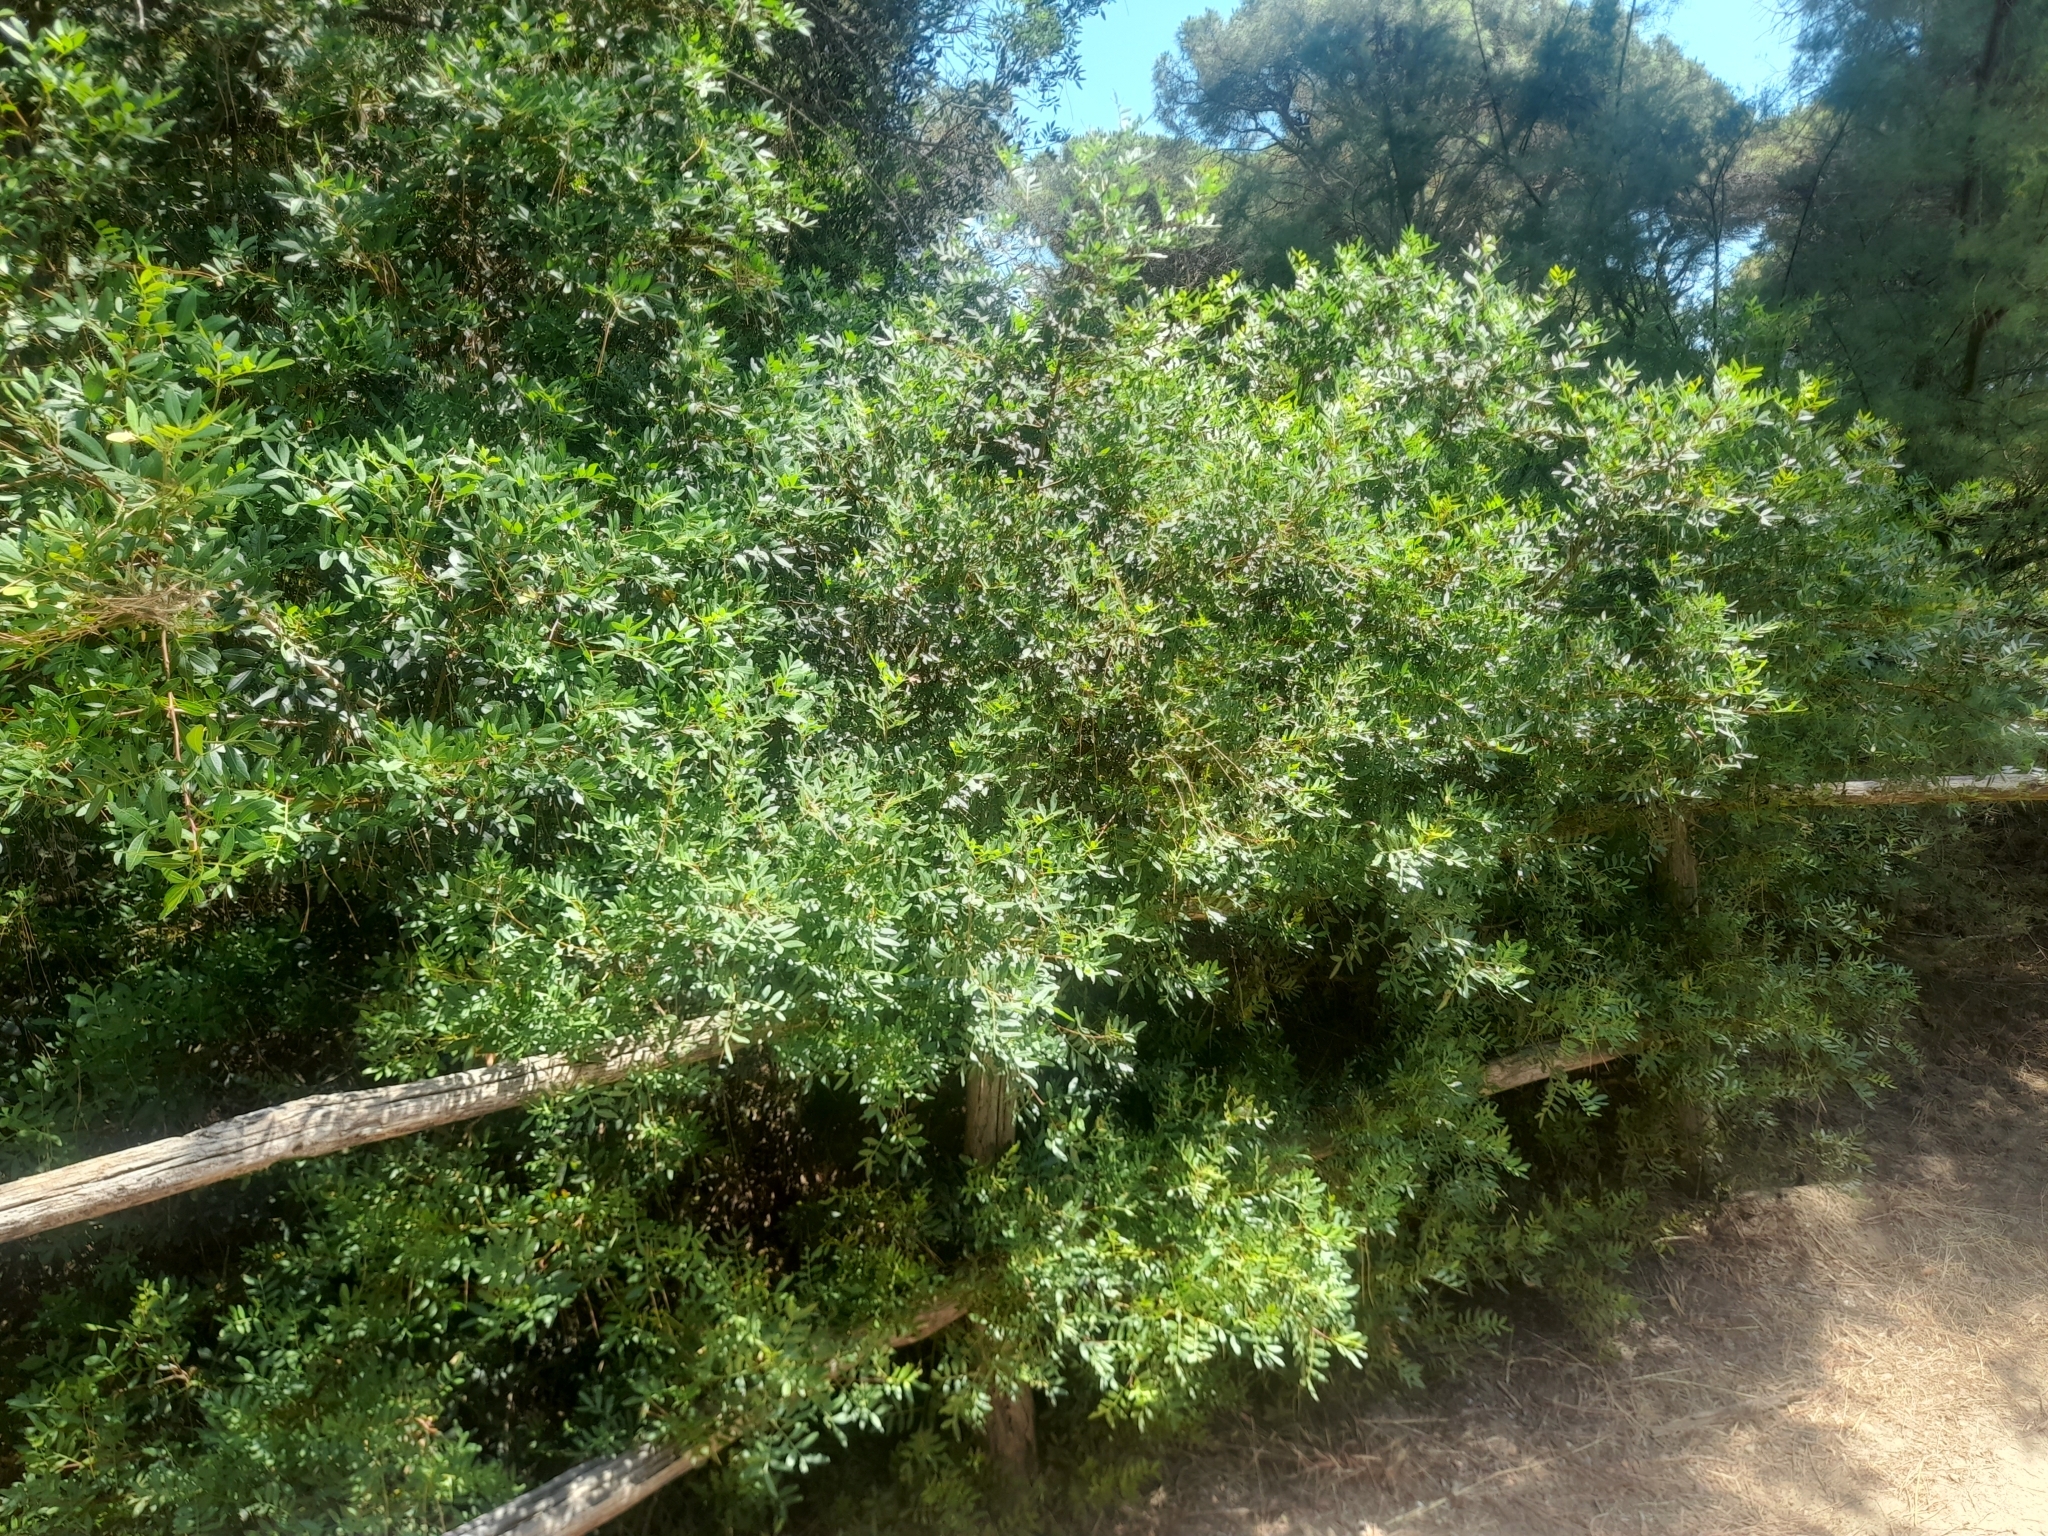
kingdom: Plantae
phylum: Tracheophyta
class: Magnoliopsida
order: Sapindales
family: Anacardiaceae
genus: Pistacia
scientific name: Pistacia lentiscus
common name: Lentisk
